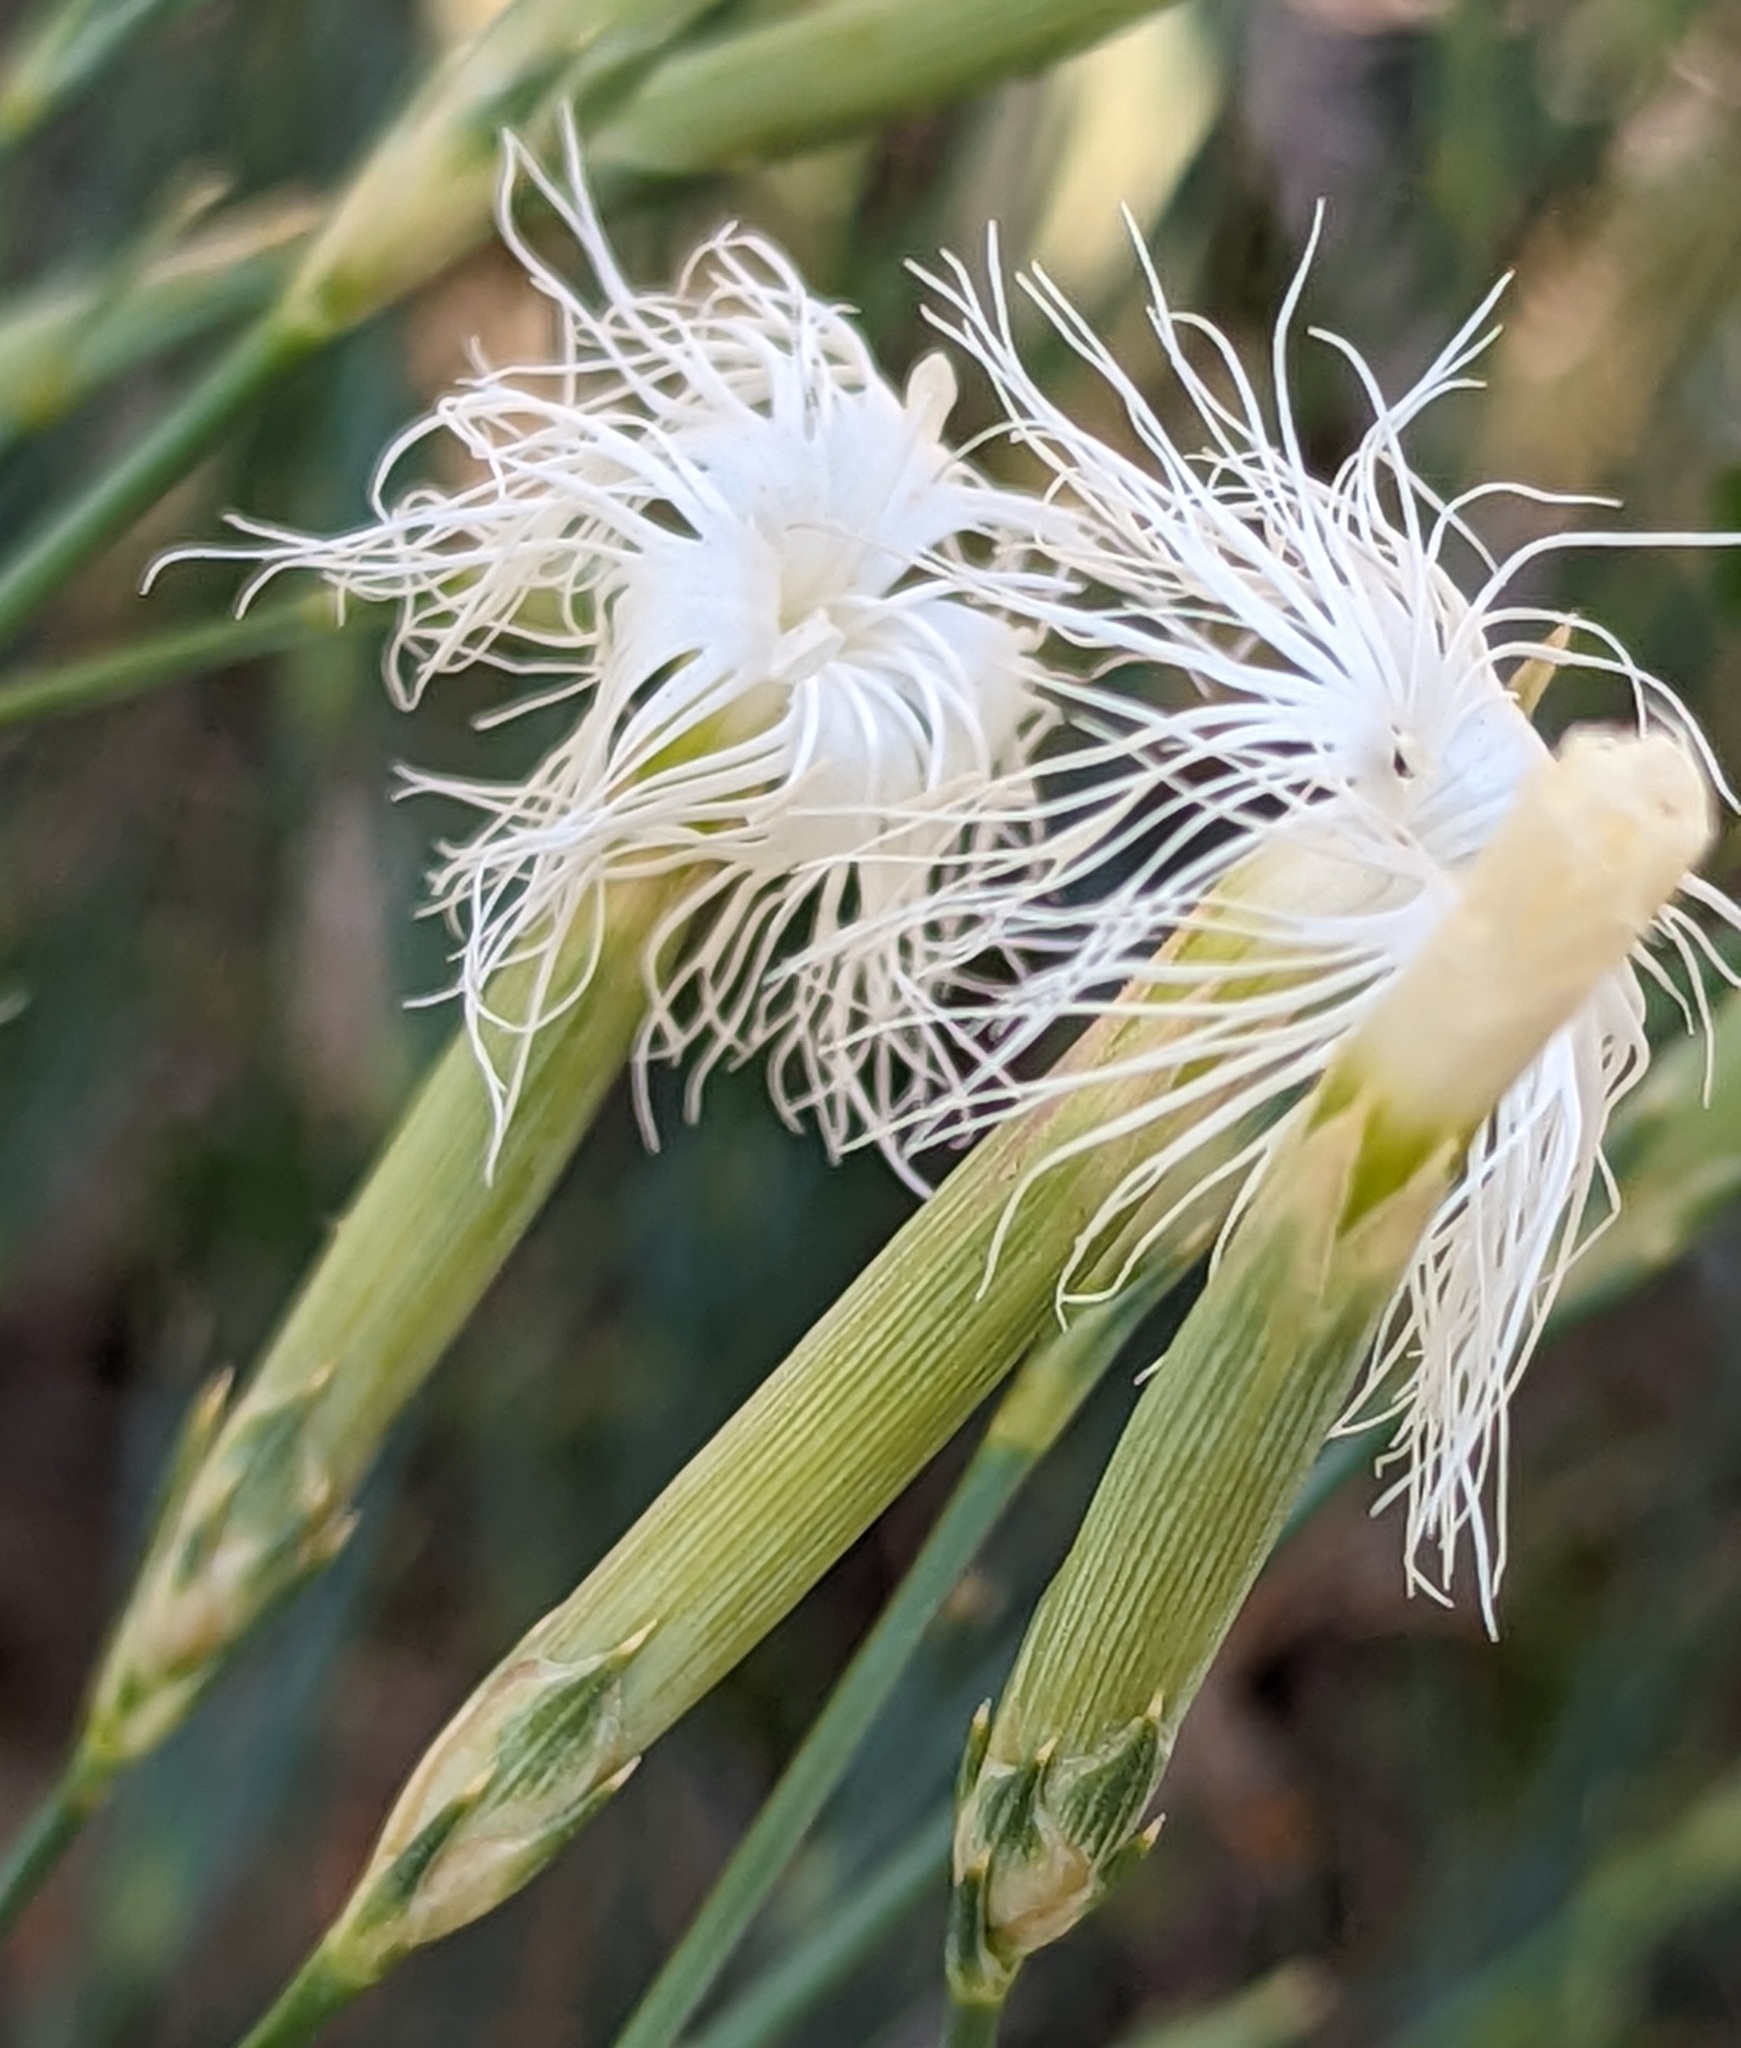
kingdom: Plantae
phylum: Tracheophyta
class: Magnoliopsida
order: Caryophyllales
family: Caryophyllaceae
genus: Dianthus
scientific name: Dianthus crinitus
